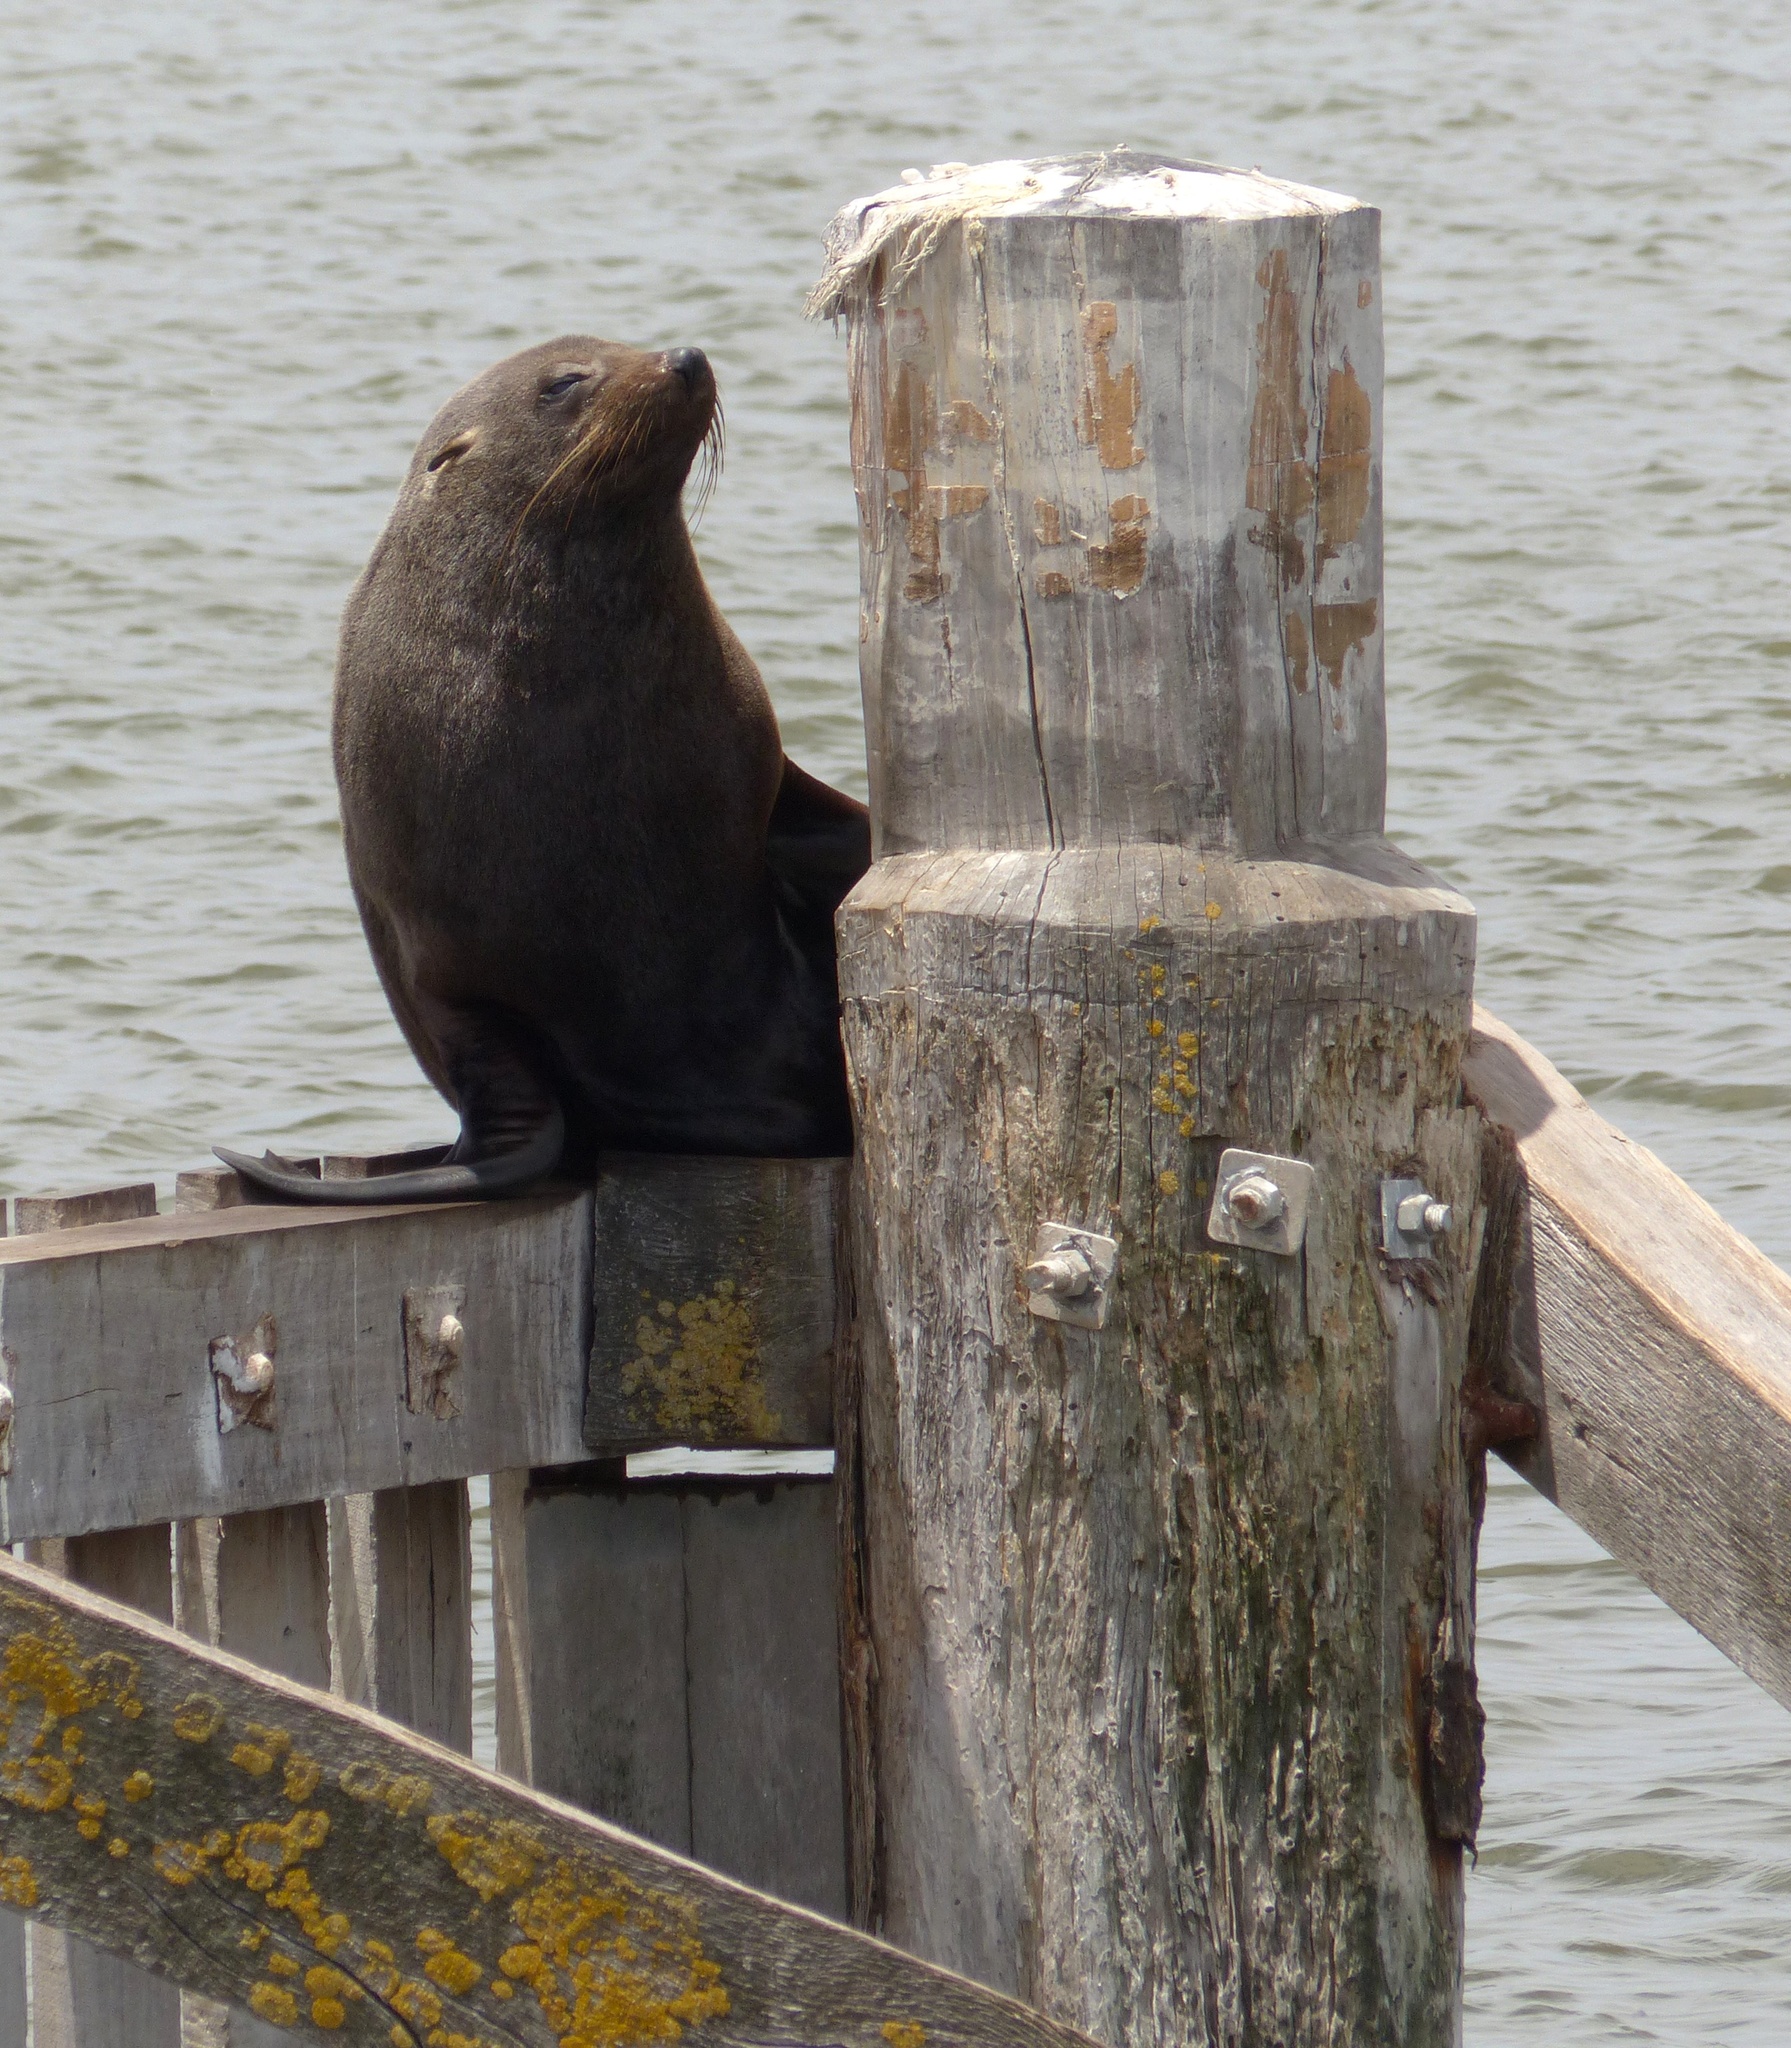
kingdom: Animalia
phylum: Chordata
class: Mammalia
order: Carnivora
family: Otariidae
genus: Arctocephalus
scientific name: Arctocephalus forsteri
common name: New zealand fur seal
